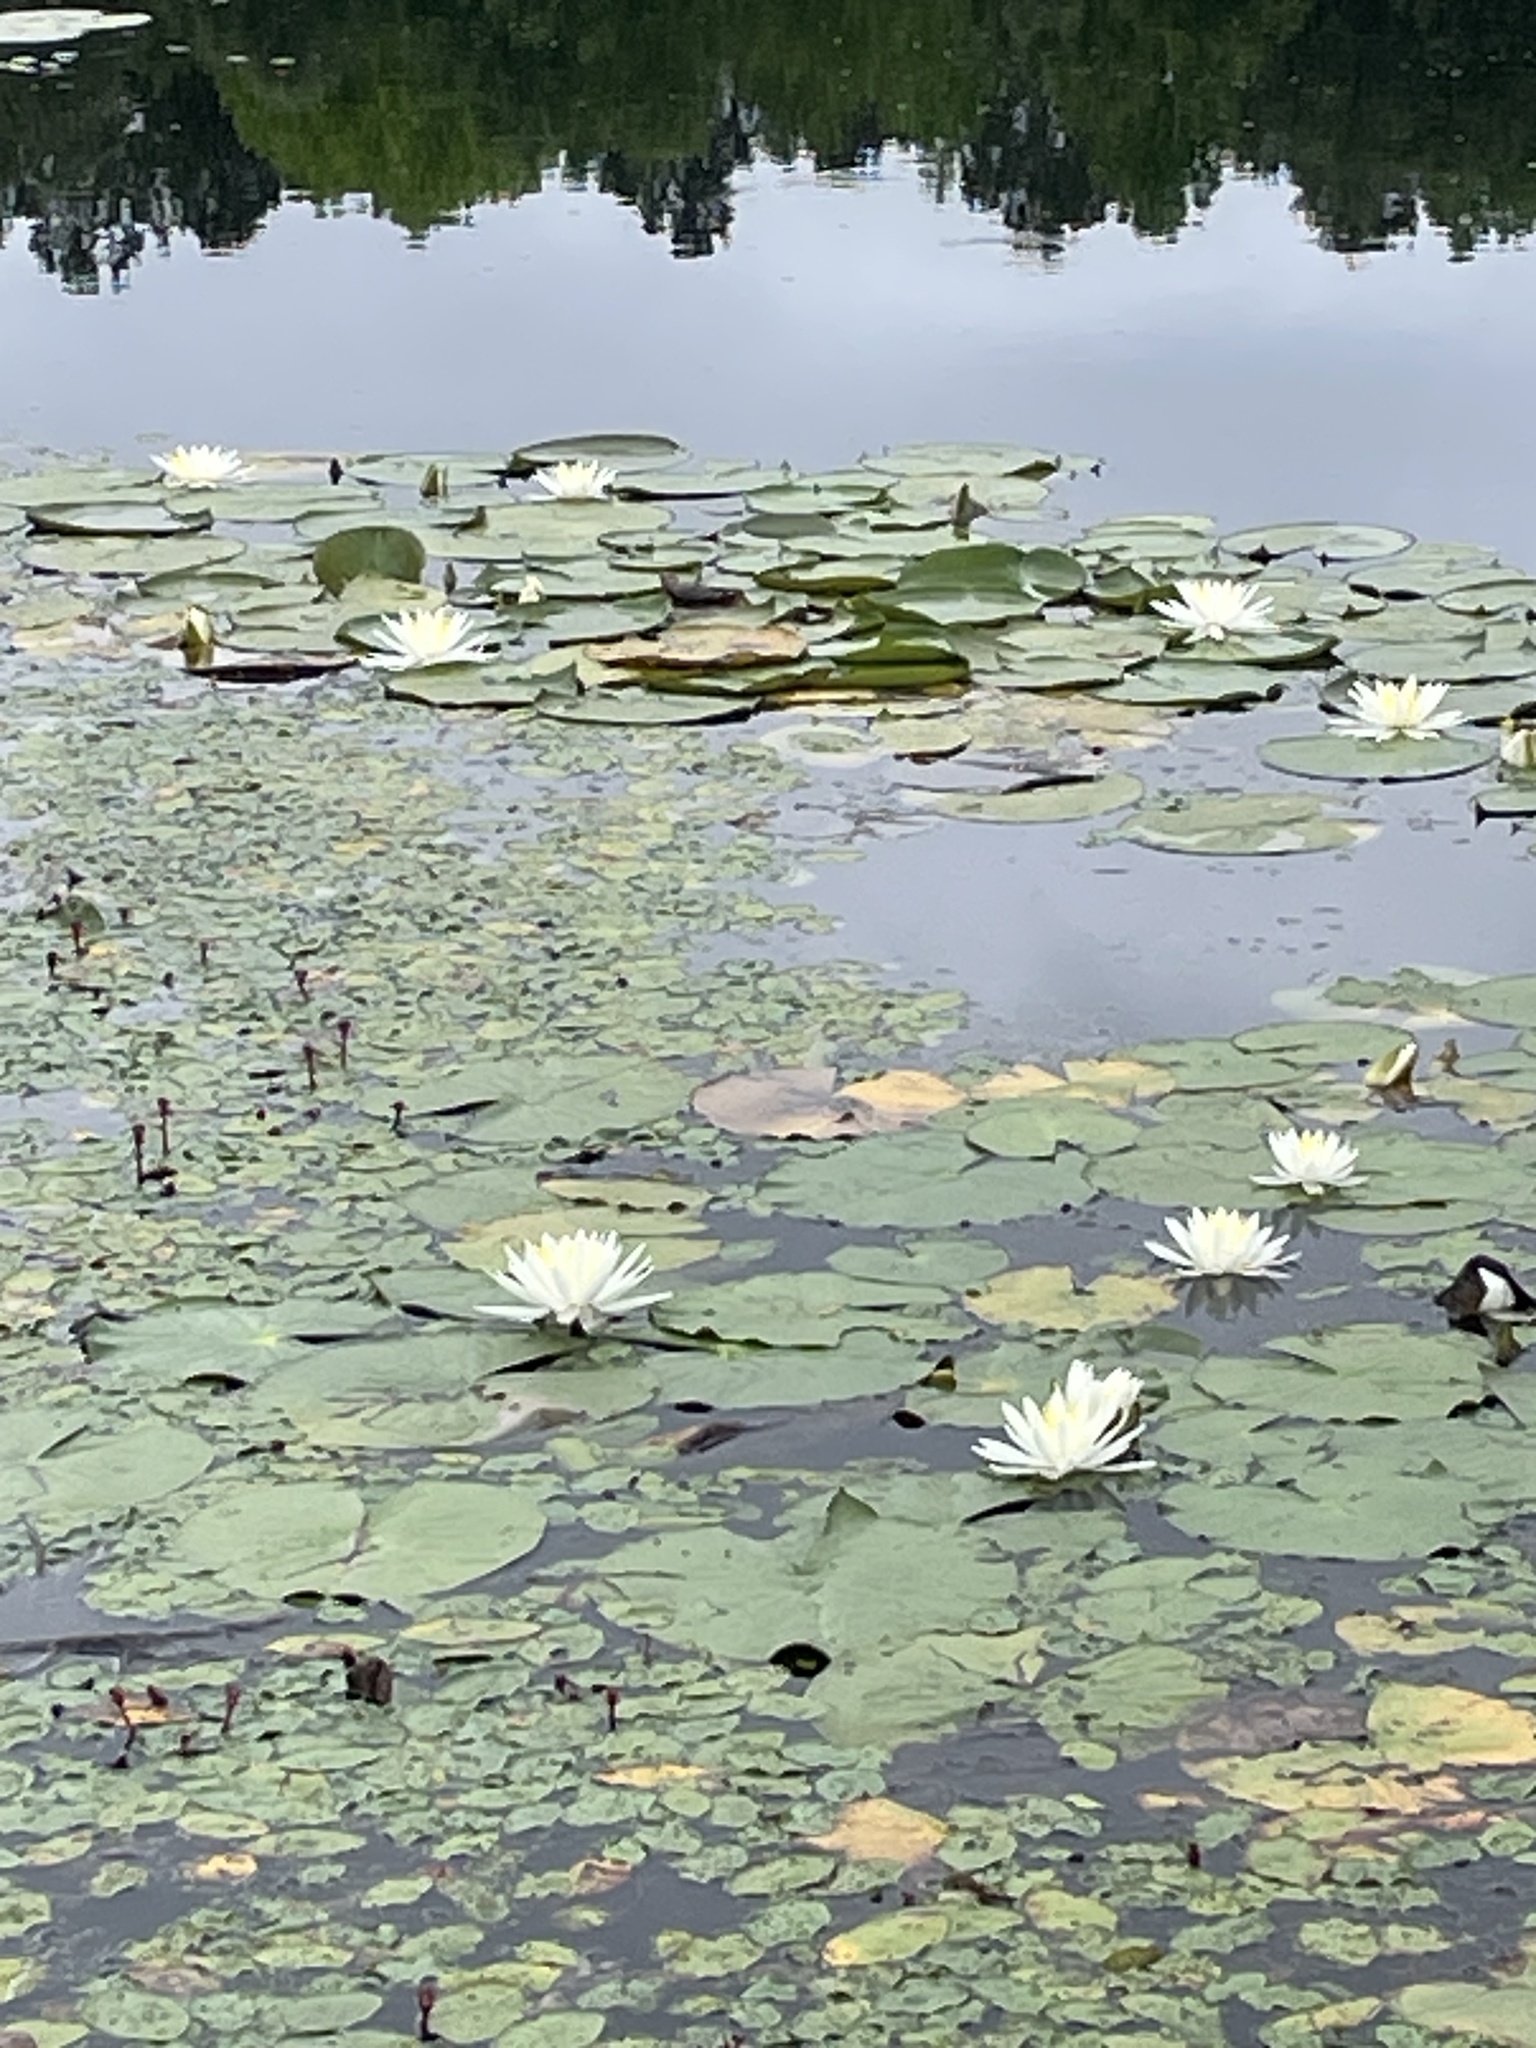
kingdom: Plantae
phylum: Tracheophyta
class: Magnoliopsida
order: Nymphaeales
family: Nymphaeaceae
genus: Nymphaea
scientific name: Nymphaea odorata
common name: Fragrant water-lily
